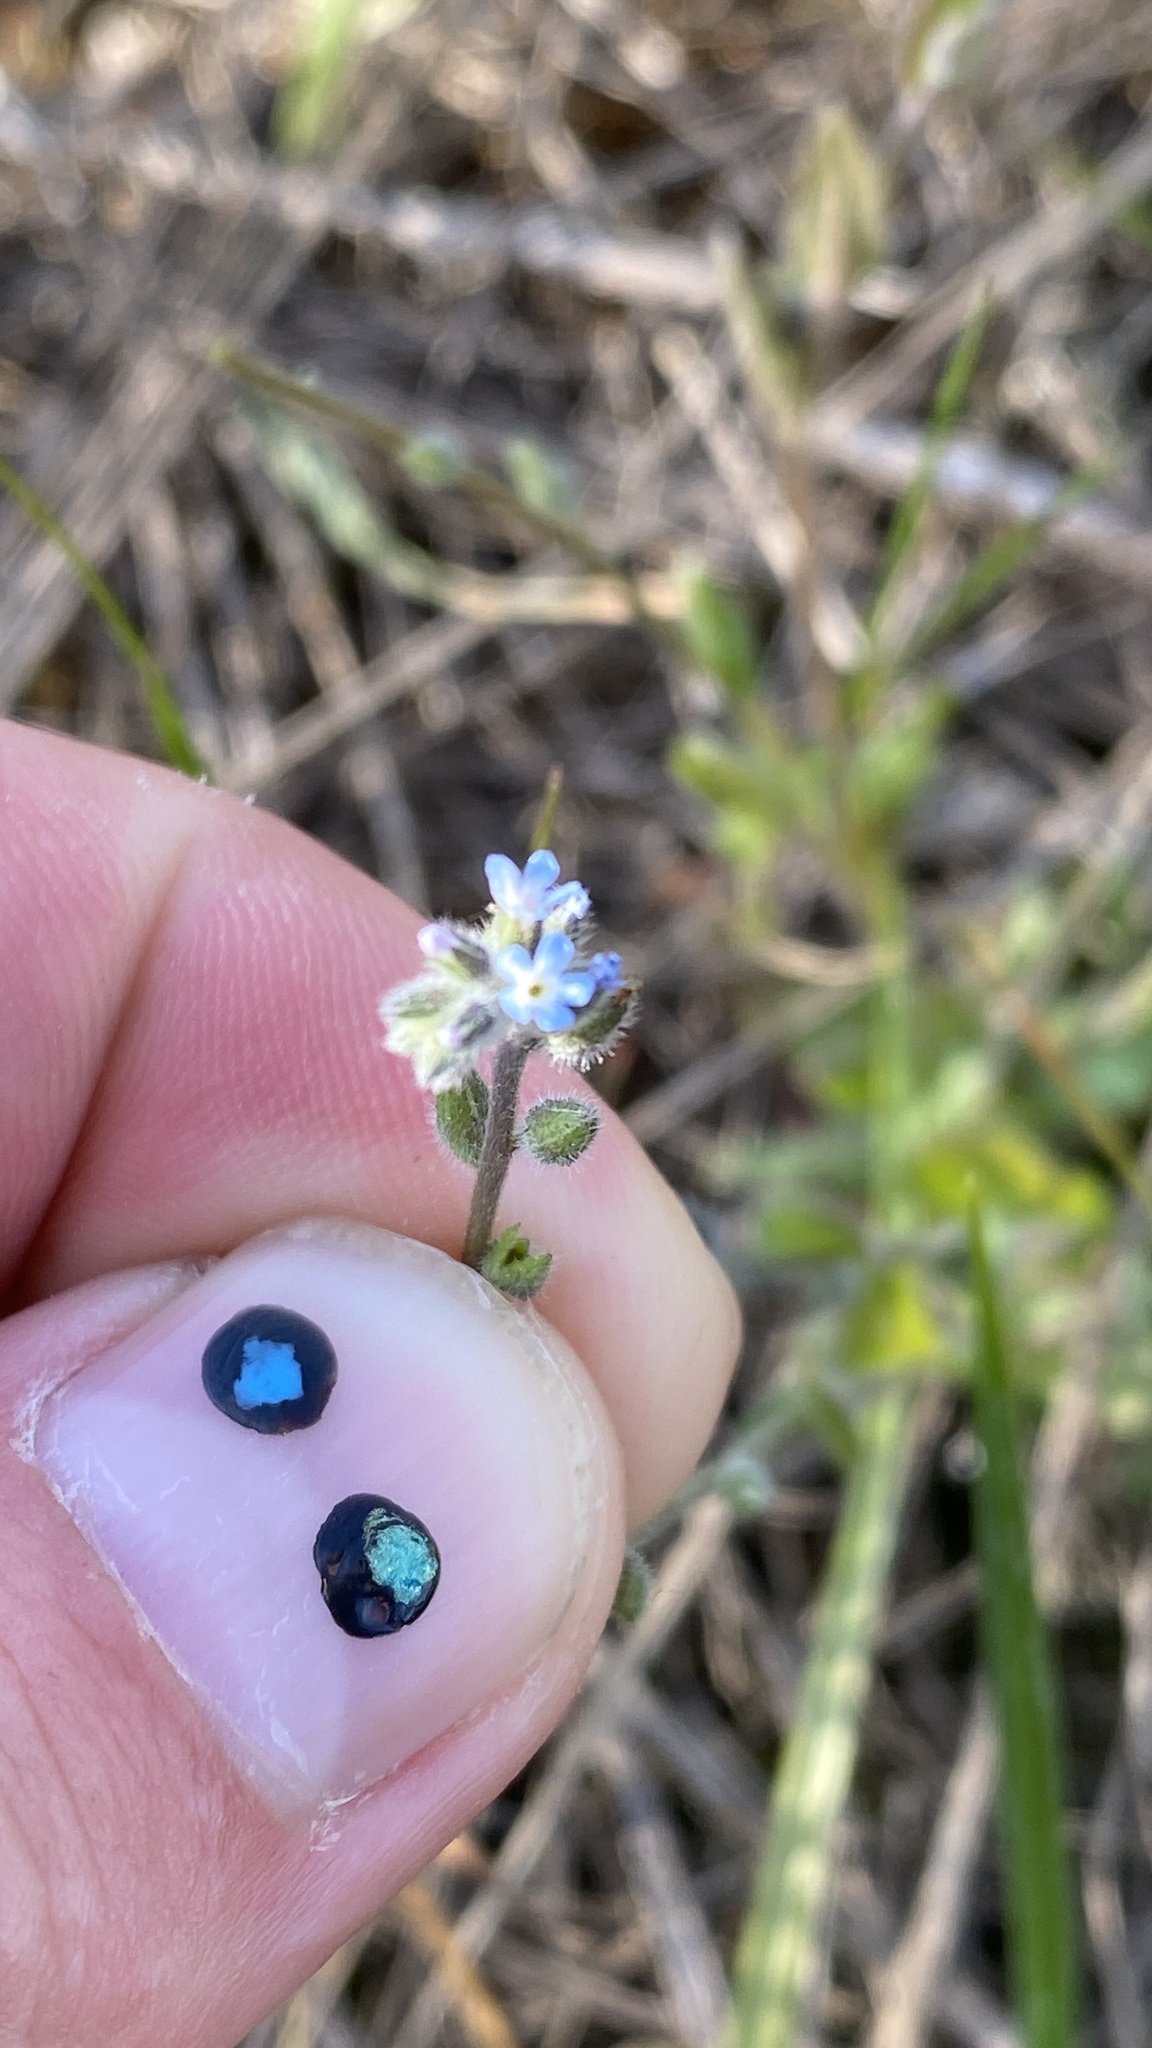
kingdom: Plantae
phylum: Tracheophyta
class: Magnoliopsida
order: Boraginales
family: Boraginaceae
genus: Myosotis
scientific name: Myosotis stricta
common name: Strict forget-me-not
